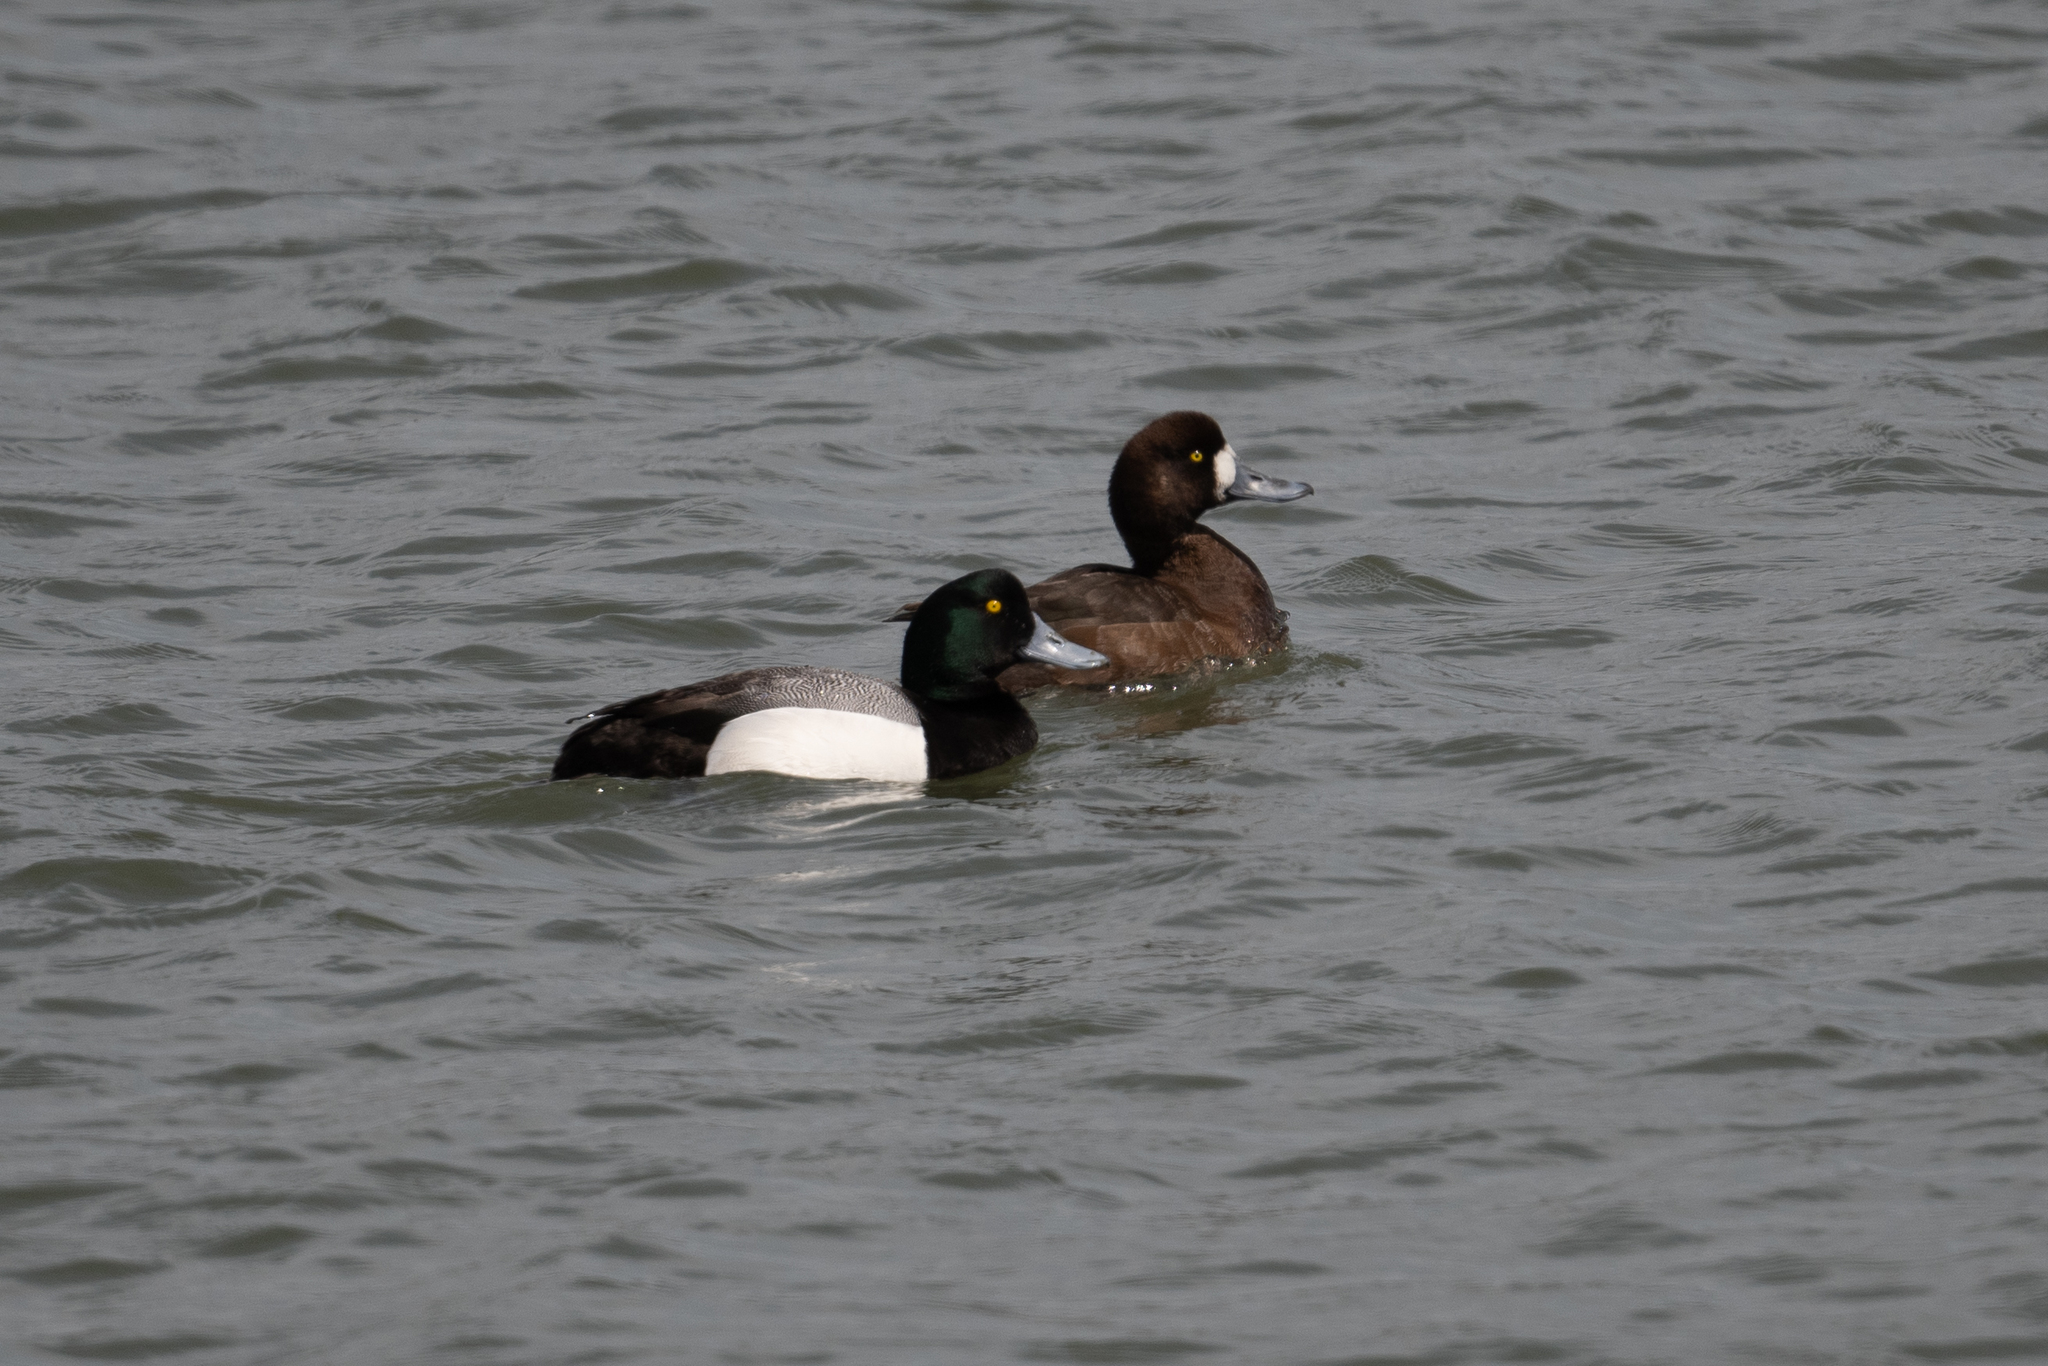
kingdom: Animalia
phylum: Chordata
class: Aves
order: Anseriformes
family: Anatidae
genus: Aythya
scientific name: Aythya marila
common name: Greater scaup
